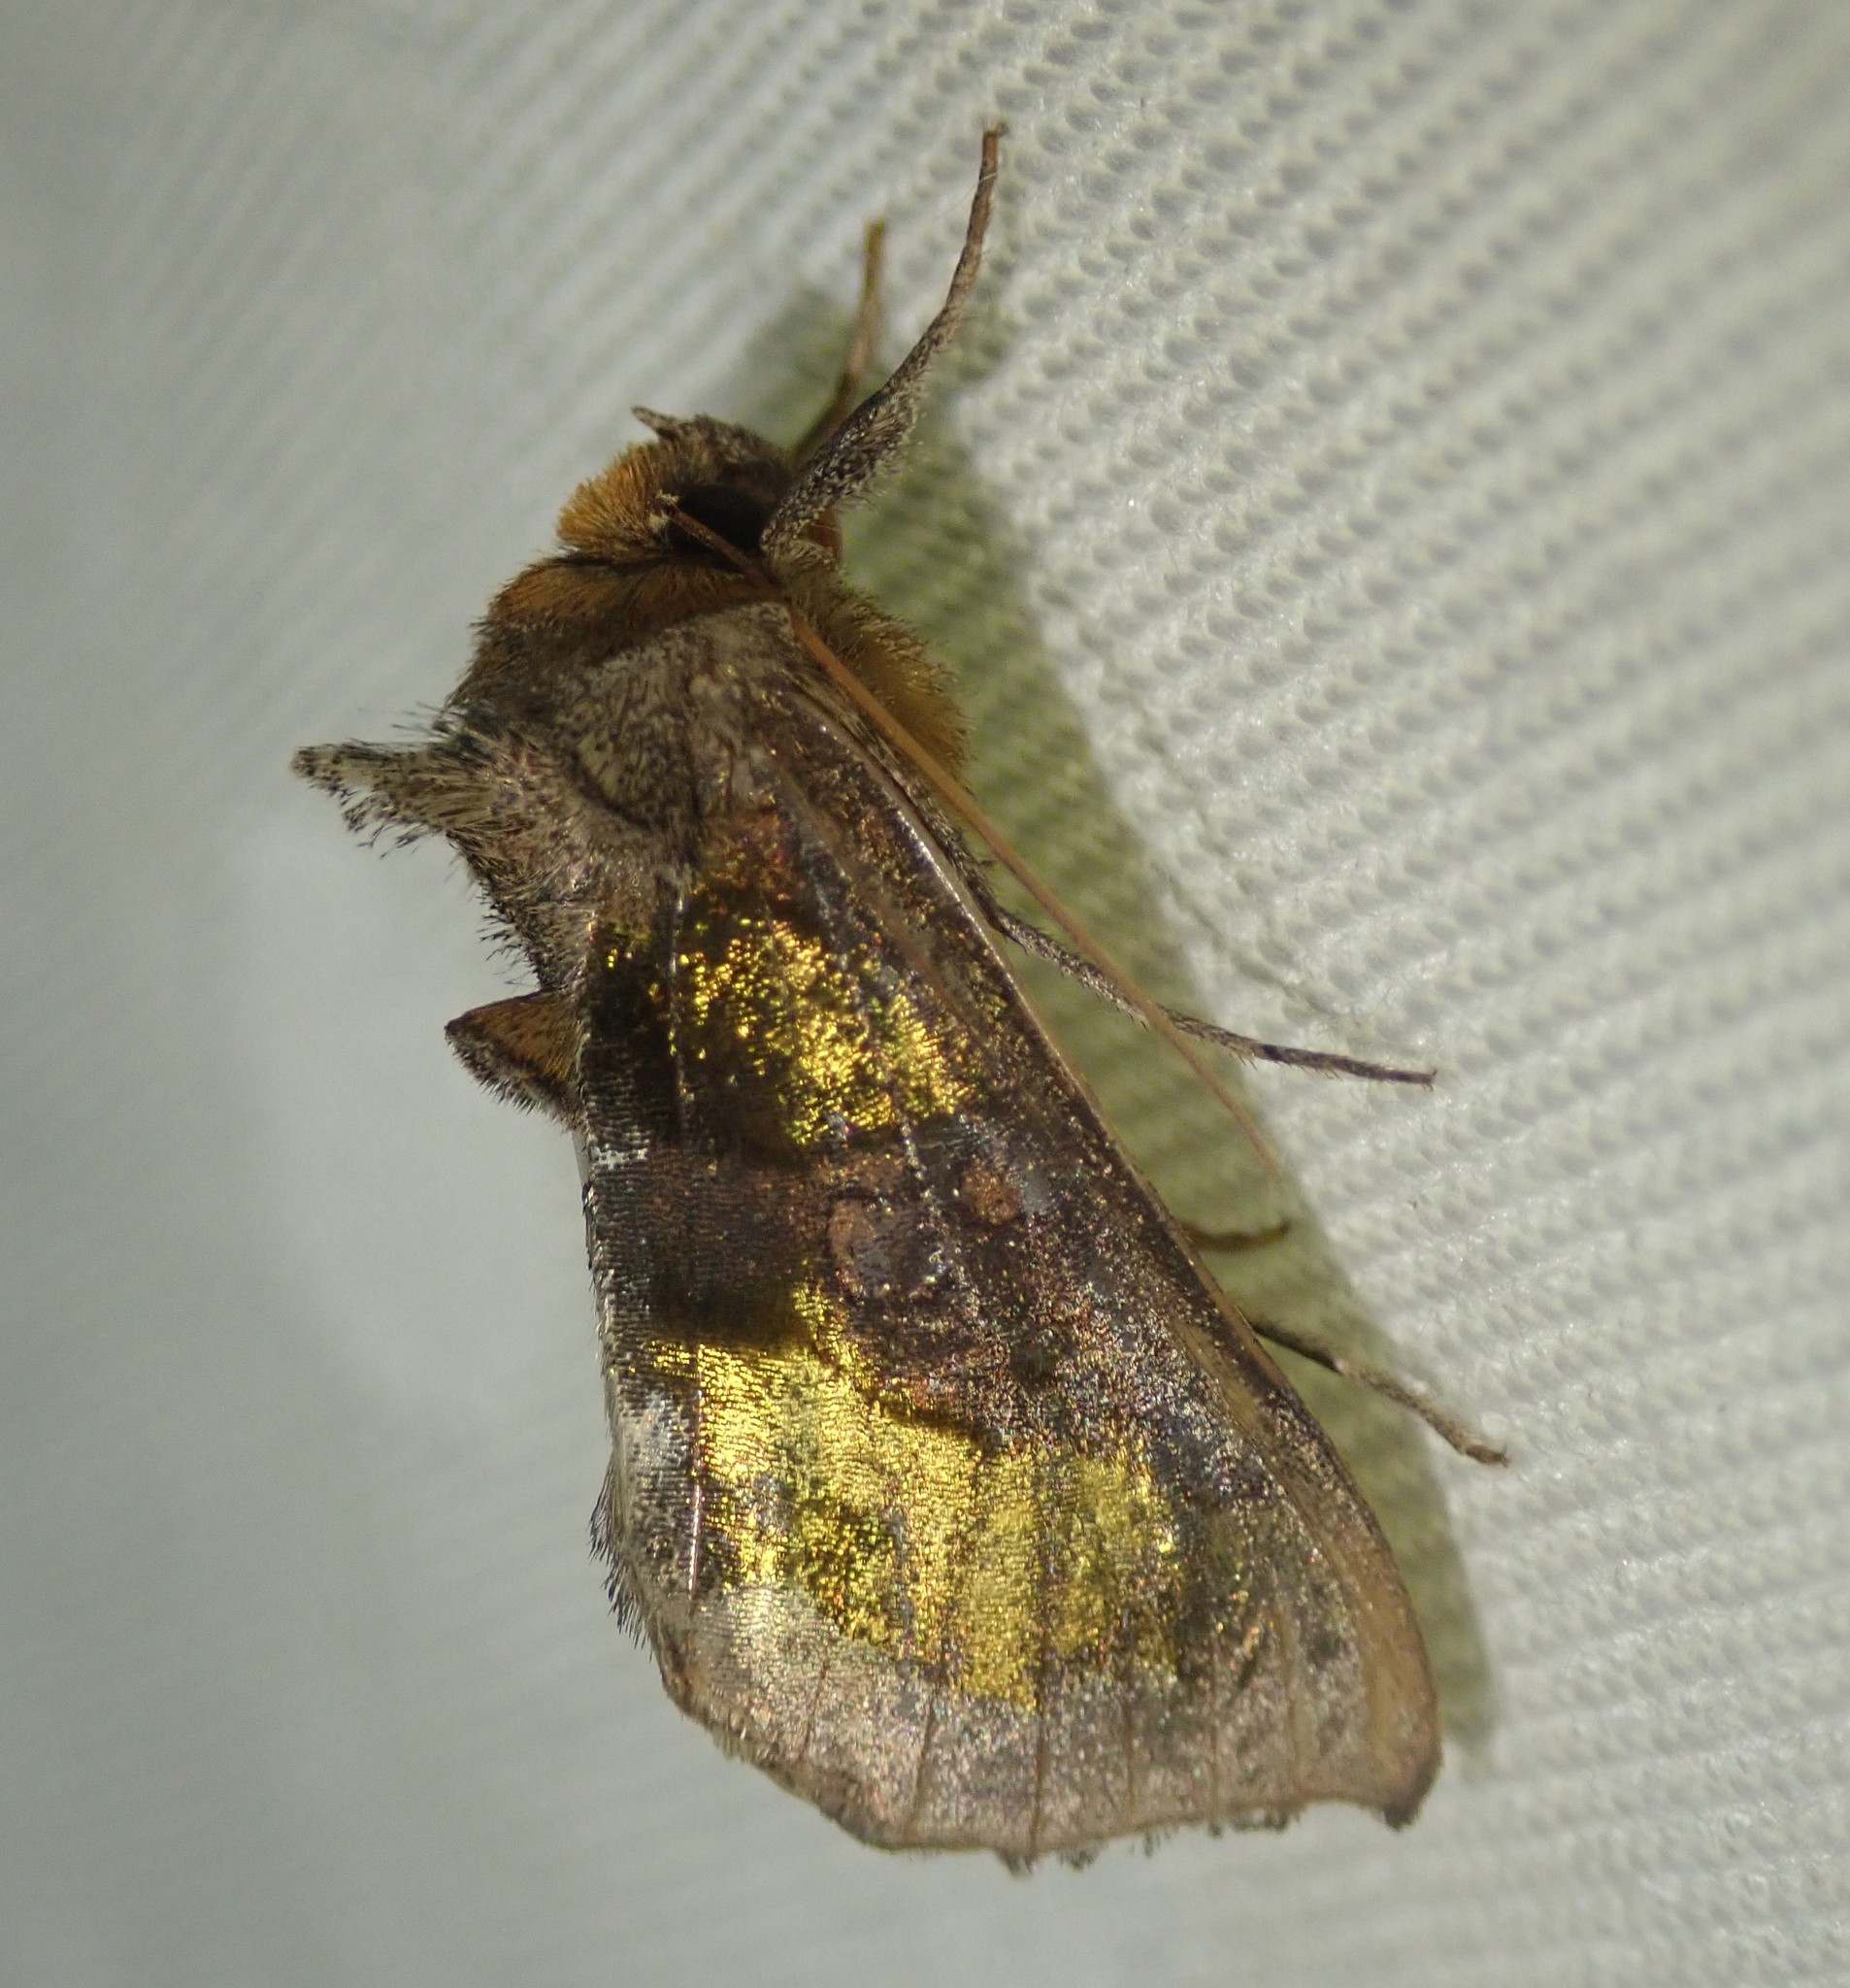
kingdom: Animalia
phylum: Arthropoda
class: Insecta
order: Lepidoptera
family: Noctuidae
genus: Diachrysia
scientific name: Diachrysia chrysitis
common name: Burnished brass
